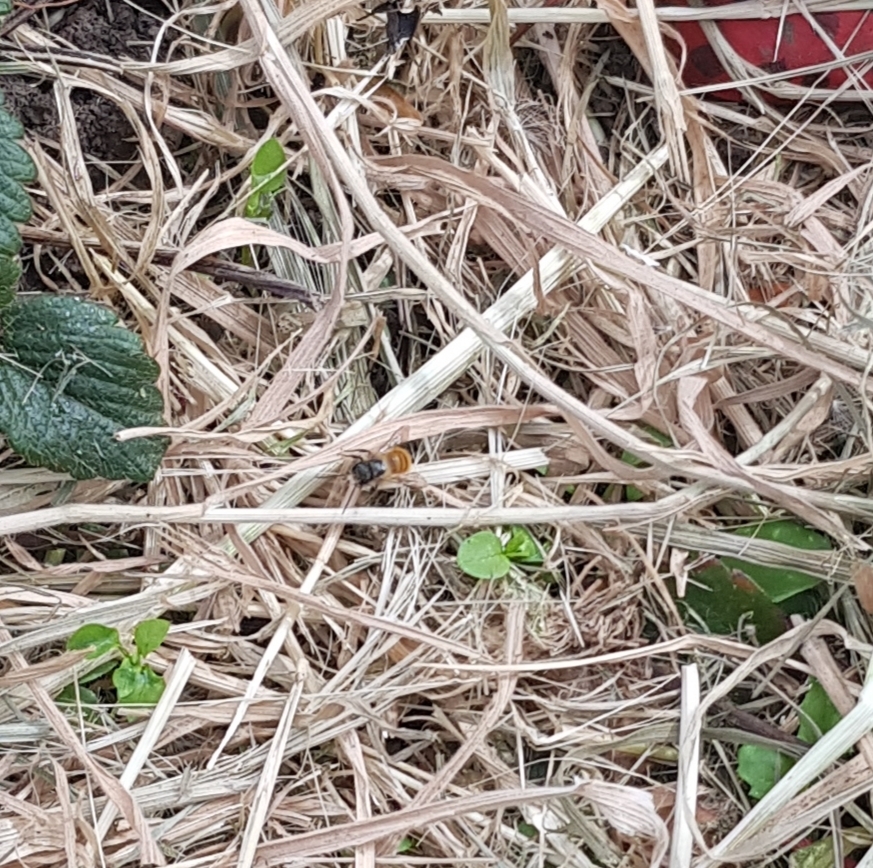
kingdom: Animalia
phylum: Arthropoda
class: Insecta
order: Hymenoptera
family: Megachilidae
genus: Osmia
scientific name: Osmia bicornis
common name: Red mason bee
